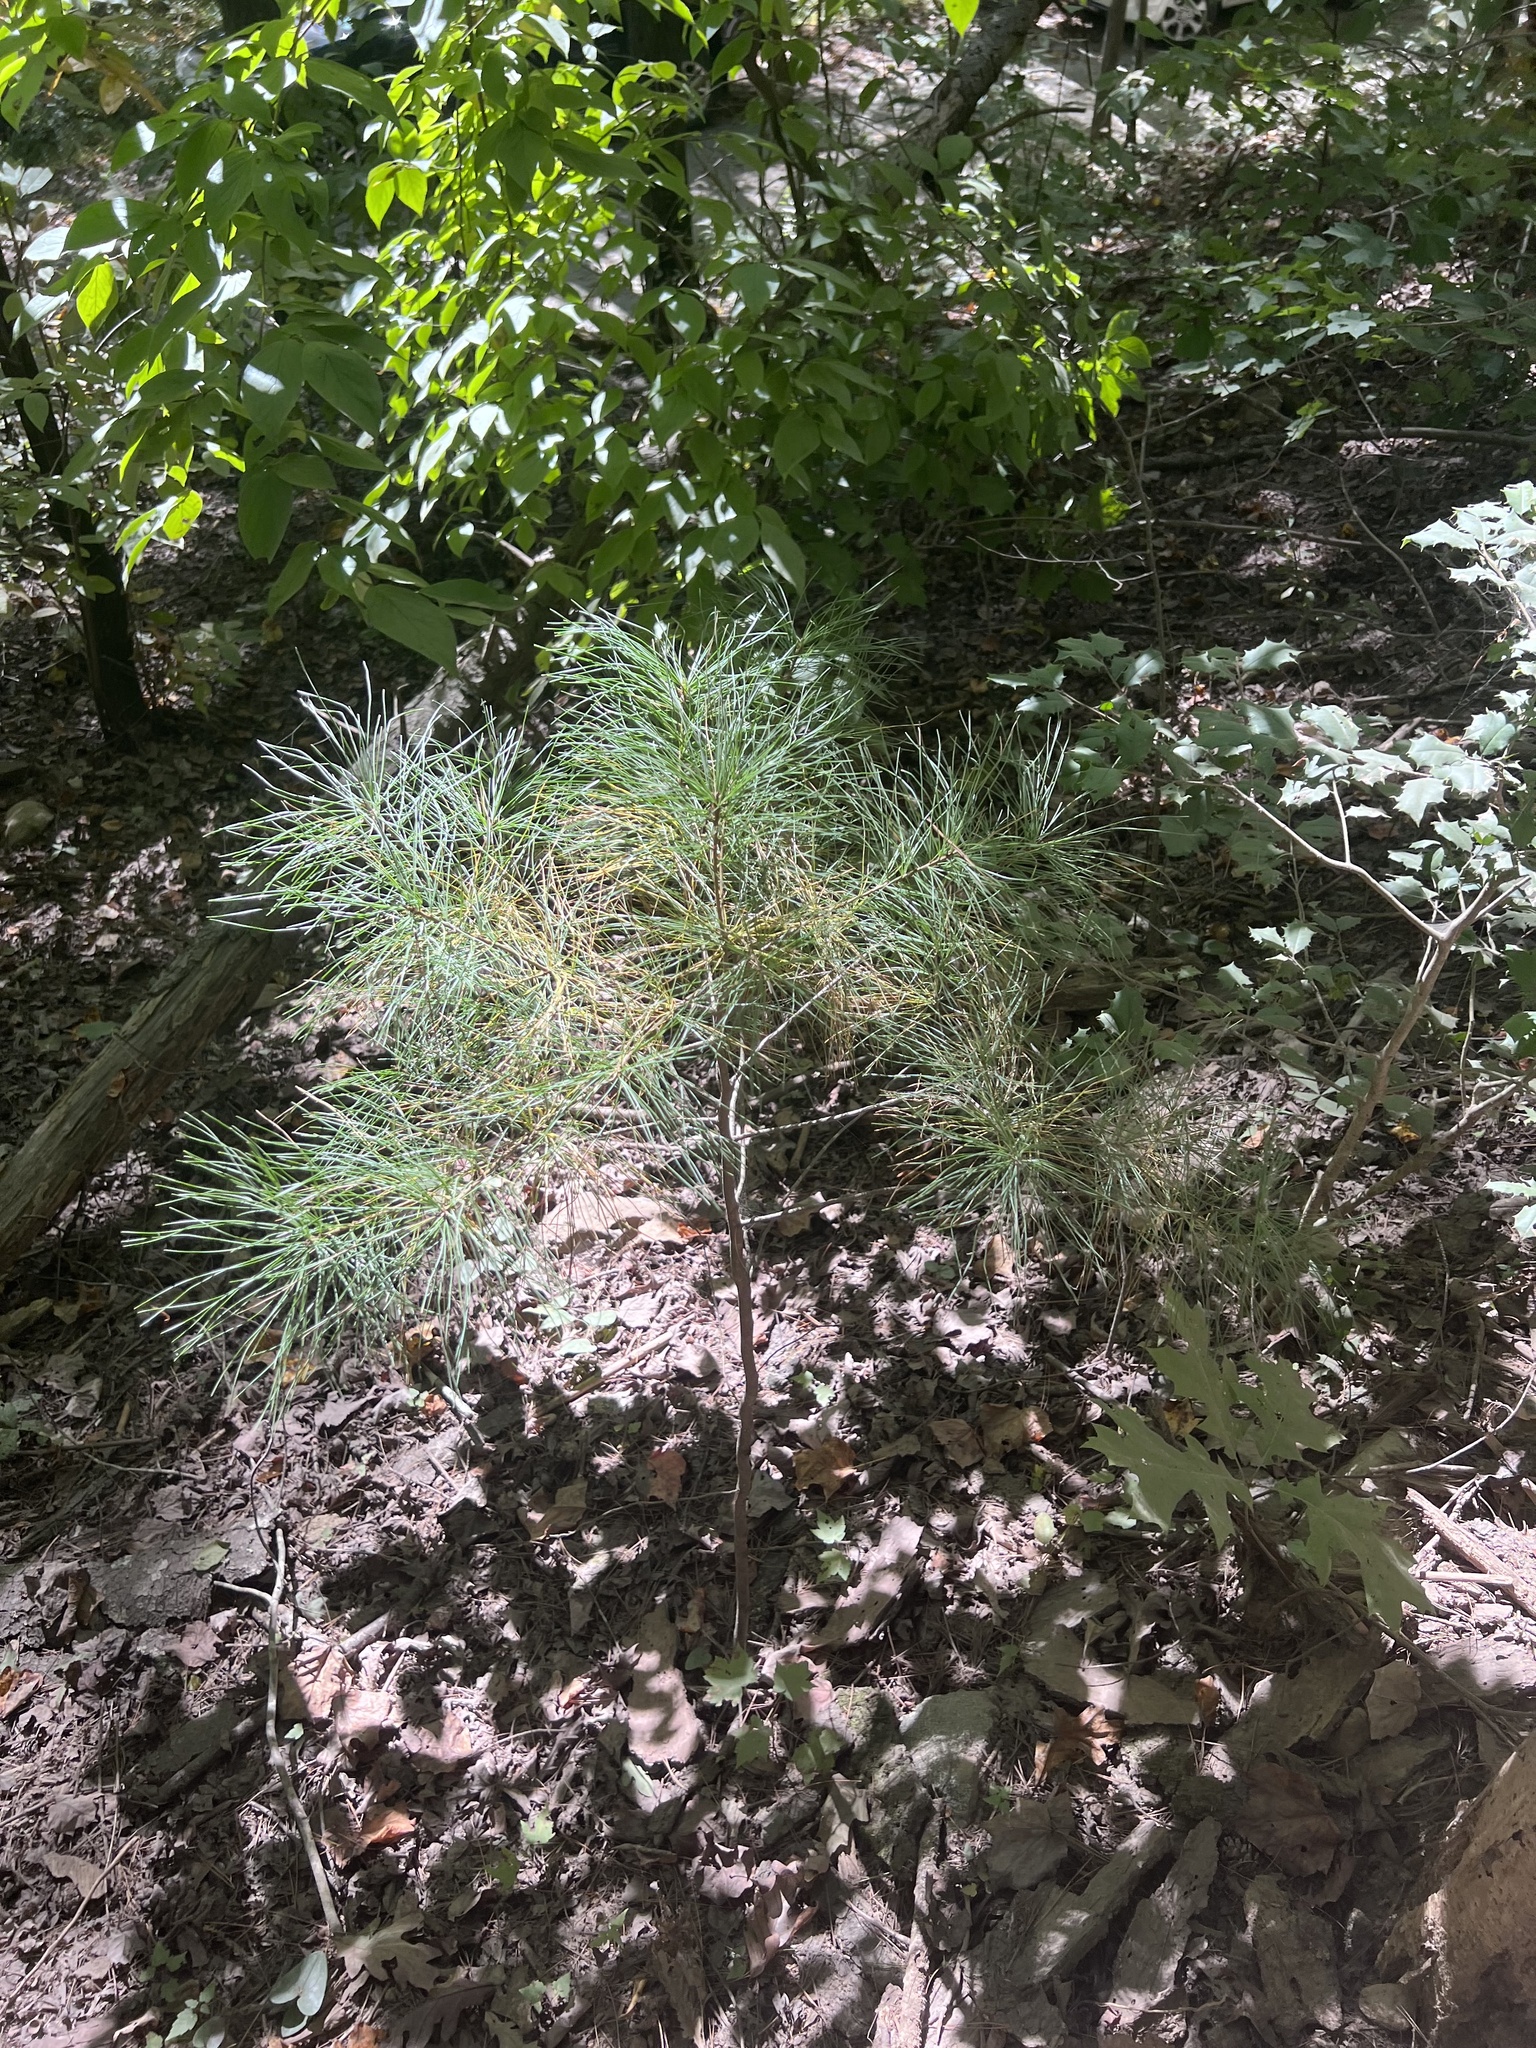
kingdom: Plantae
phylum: Tracheophyta
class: Pinopsida
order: Pinales
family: Pinaceae
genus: Pinus
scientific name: Pinus strobus
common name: Weymouth pine
